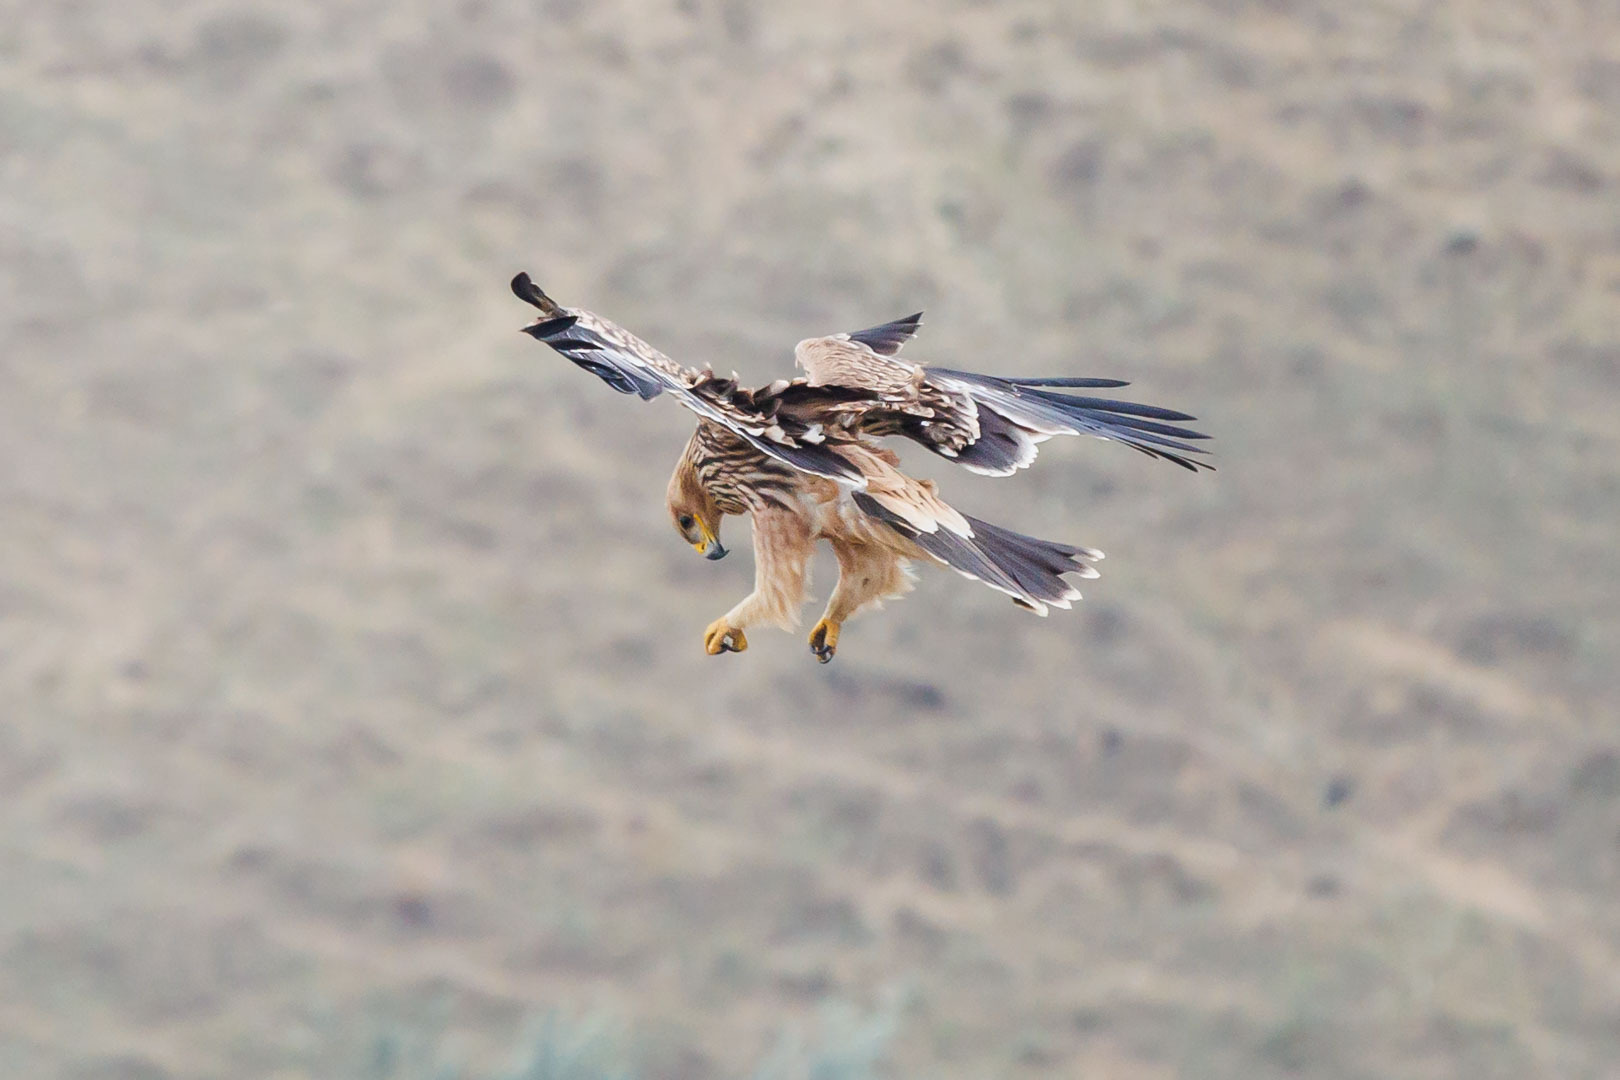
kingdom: Animalia
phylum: Chordata
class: Aves
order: Accipitriformes
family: Accipitridae
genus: Aquila
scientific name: Aquila heliaca
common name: Eastern imperial eagle
